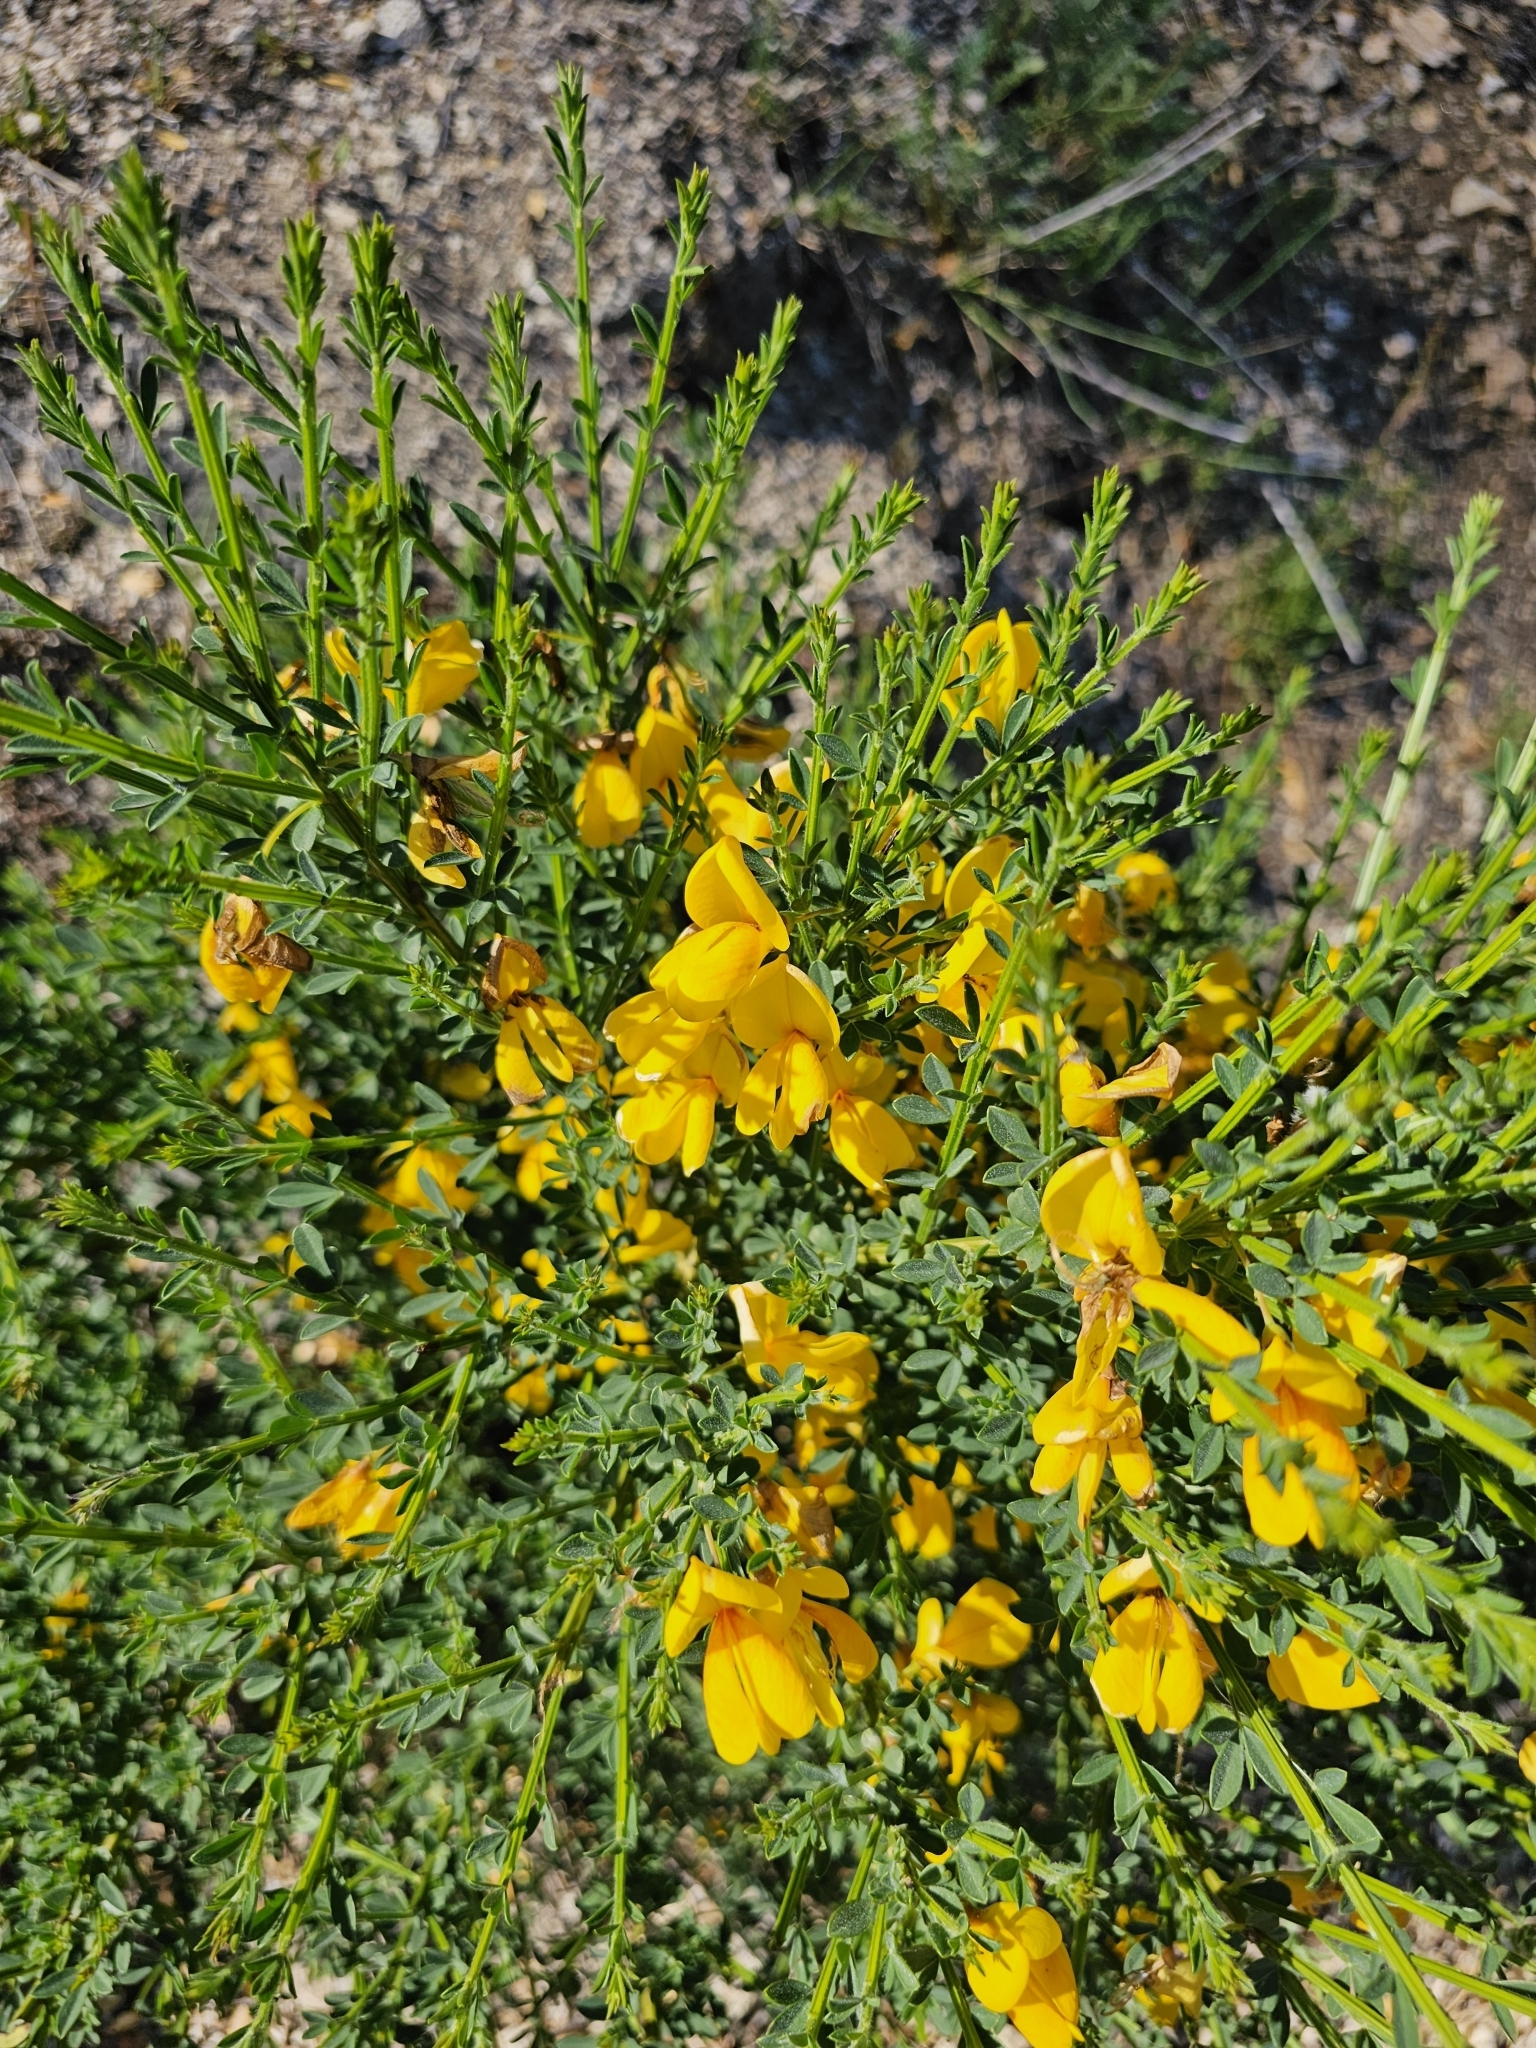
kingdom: Plantae
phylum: Tracheophyta
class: Magnoliopsida
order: Fabales
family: Fabaceae
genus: Cytisus
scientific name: Cytisus scoparius
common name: Scotch broom
